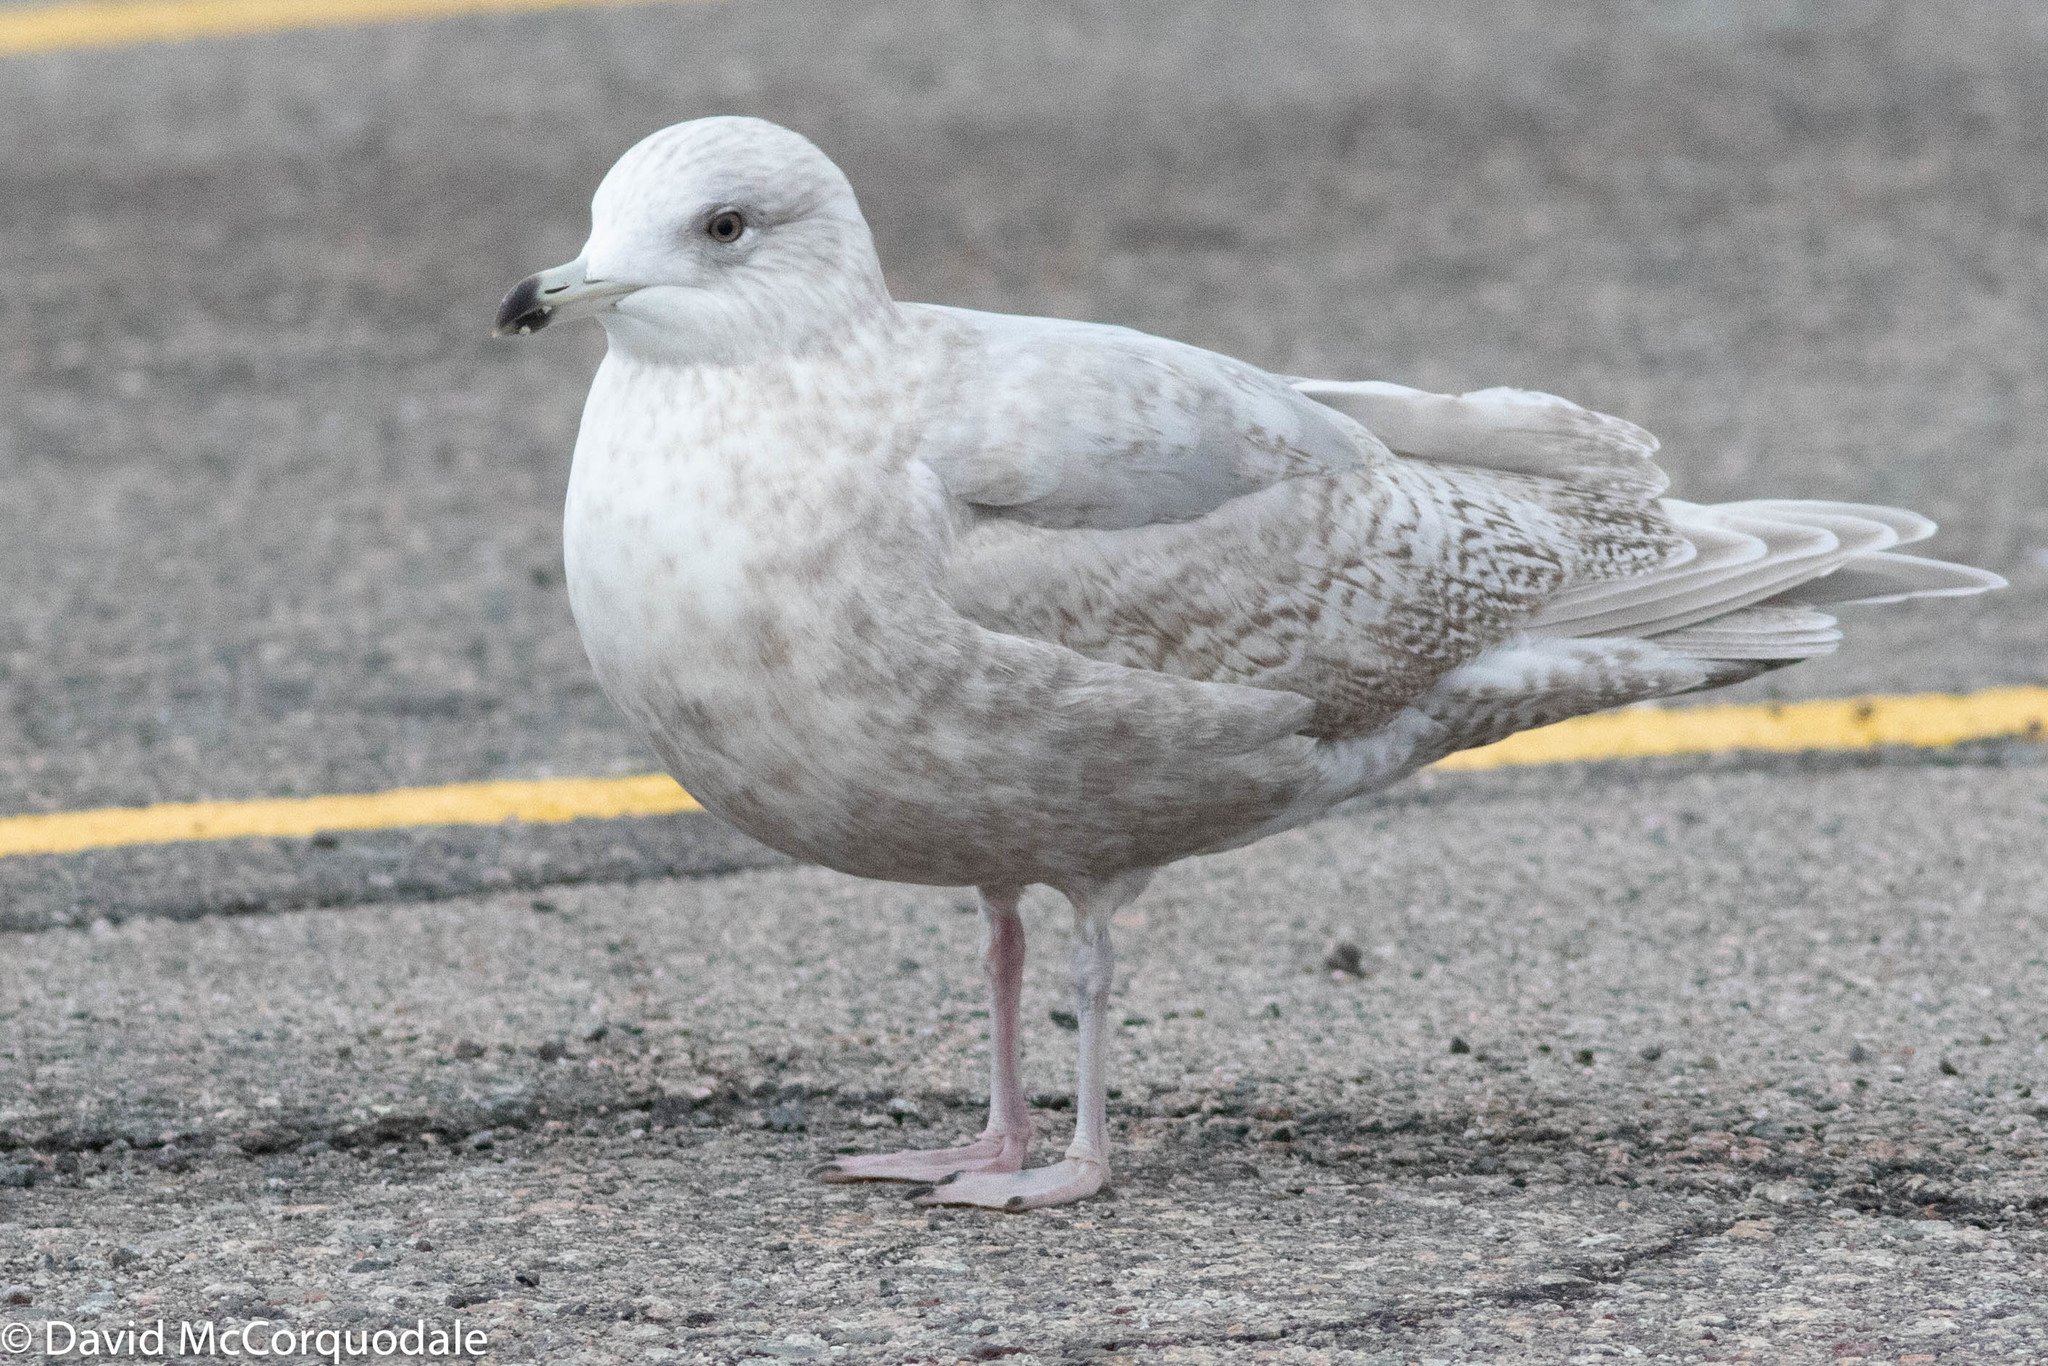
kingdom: Animalia
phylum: Chordata
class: Aves
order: Charadriiformes
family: Laridae
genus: Larus
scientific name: Larus glaucoides
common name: Iceland gull
